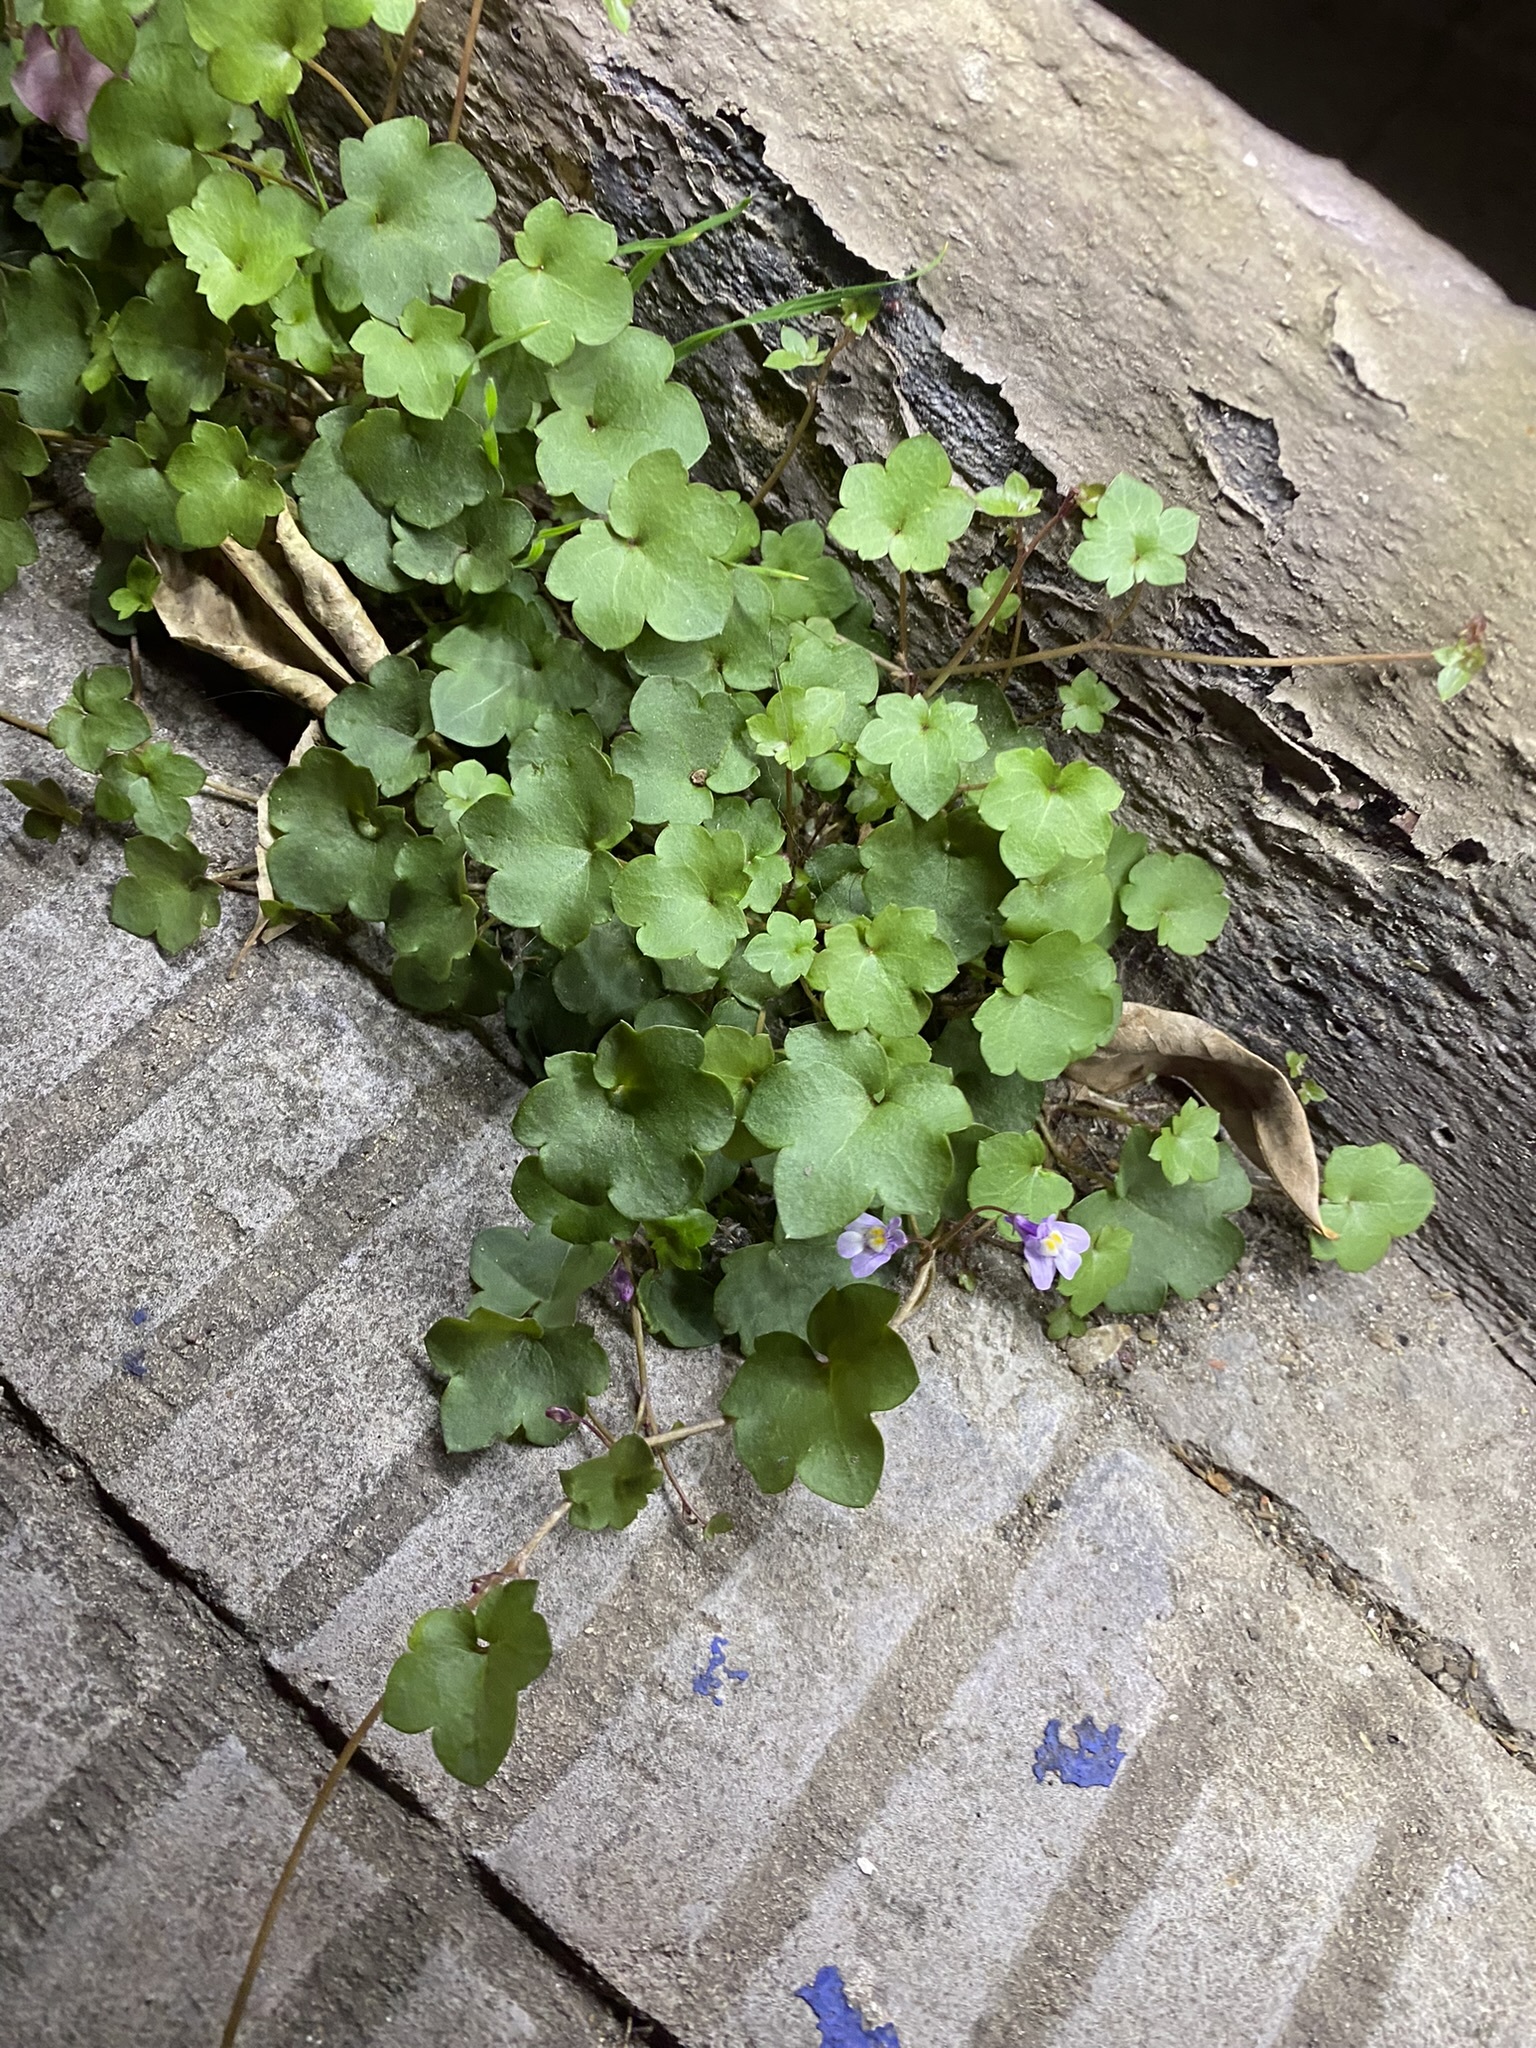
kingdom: Plantae
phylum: Tracheophyta
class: Magnoliopsida
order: Lamiales
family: Plantaginaceae
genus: Cymbalaria
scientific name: Cymbalaria muralis
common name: Ivy-leaved toadflax
